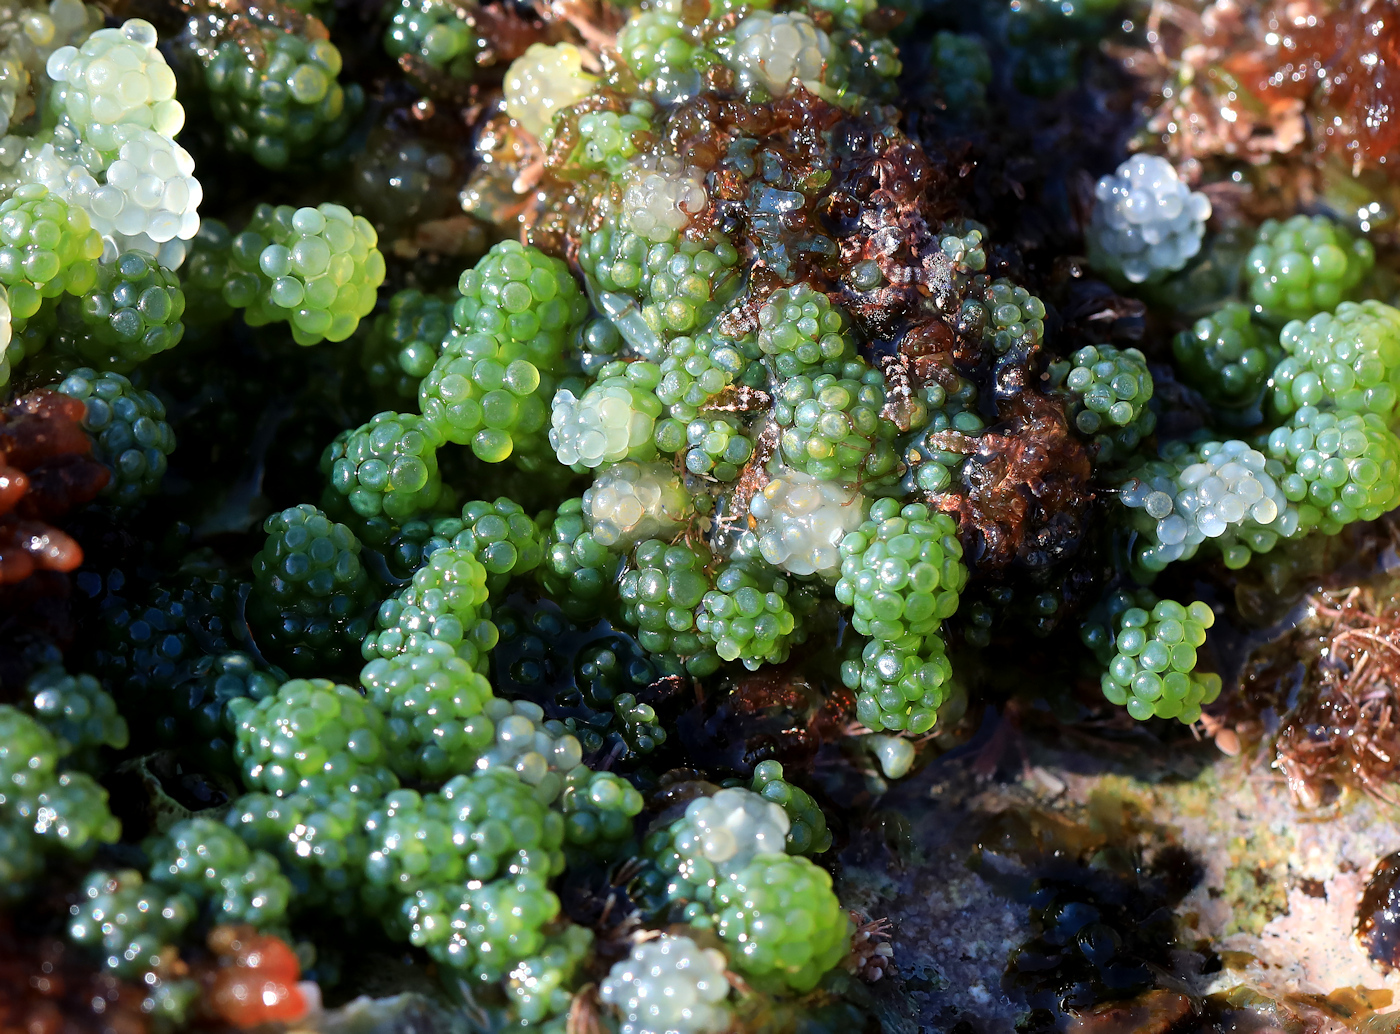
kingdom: Plantae
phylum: Chlorophyta
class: Ulvophyceae
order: Bryopsidales
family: Caulerpaceae
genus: Caulerpa
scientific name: Caulerpa racemosa
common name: Green grape algae
